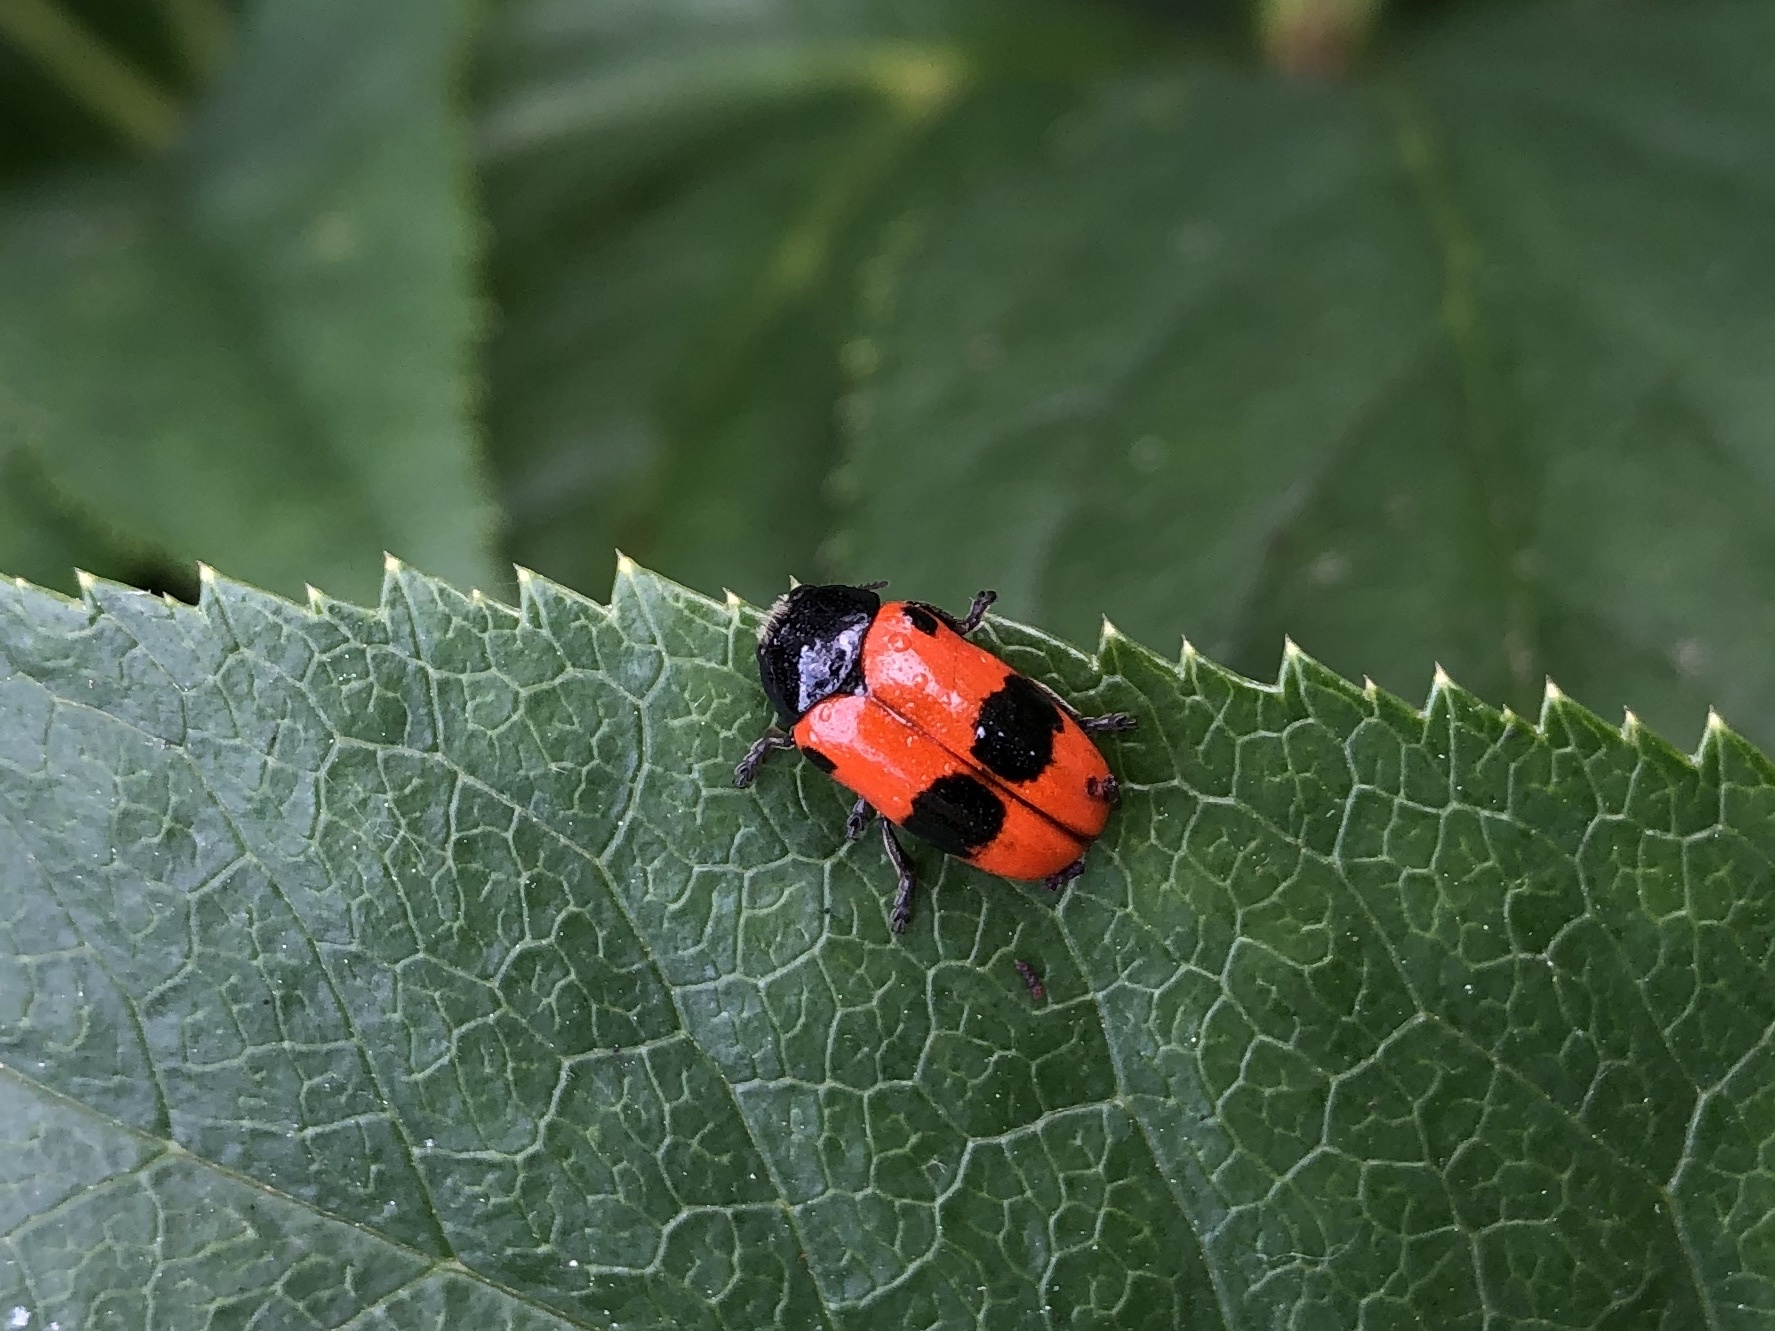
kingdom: Animalia
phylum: Arthropoda
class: Insecta
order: Coleoptera
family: Chrysomelidae
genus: Clytra
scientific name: Clytra laeviuscula
